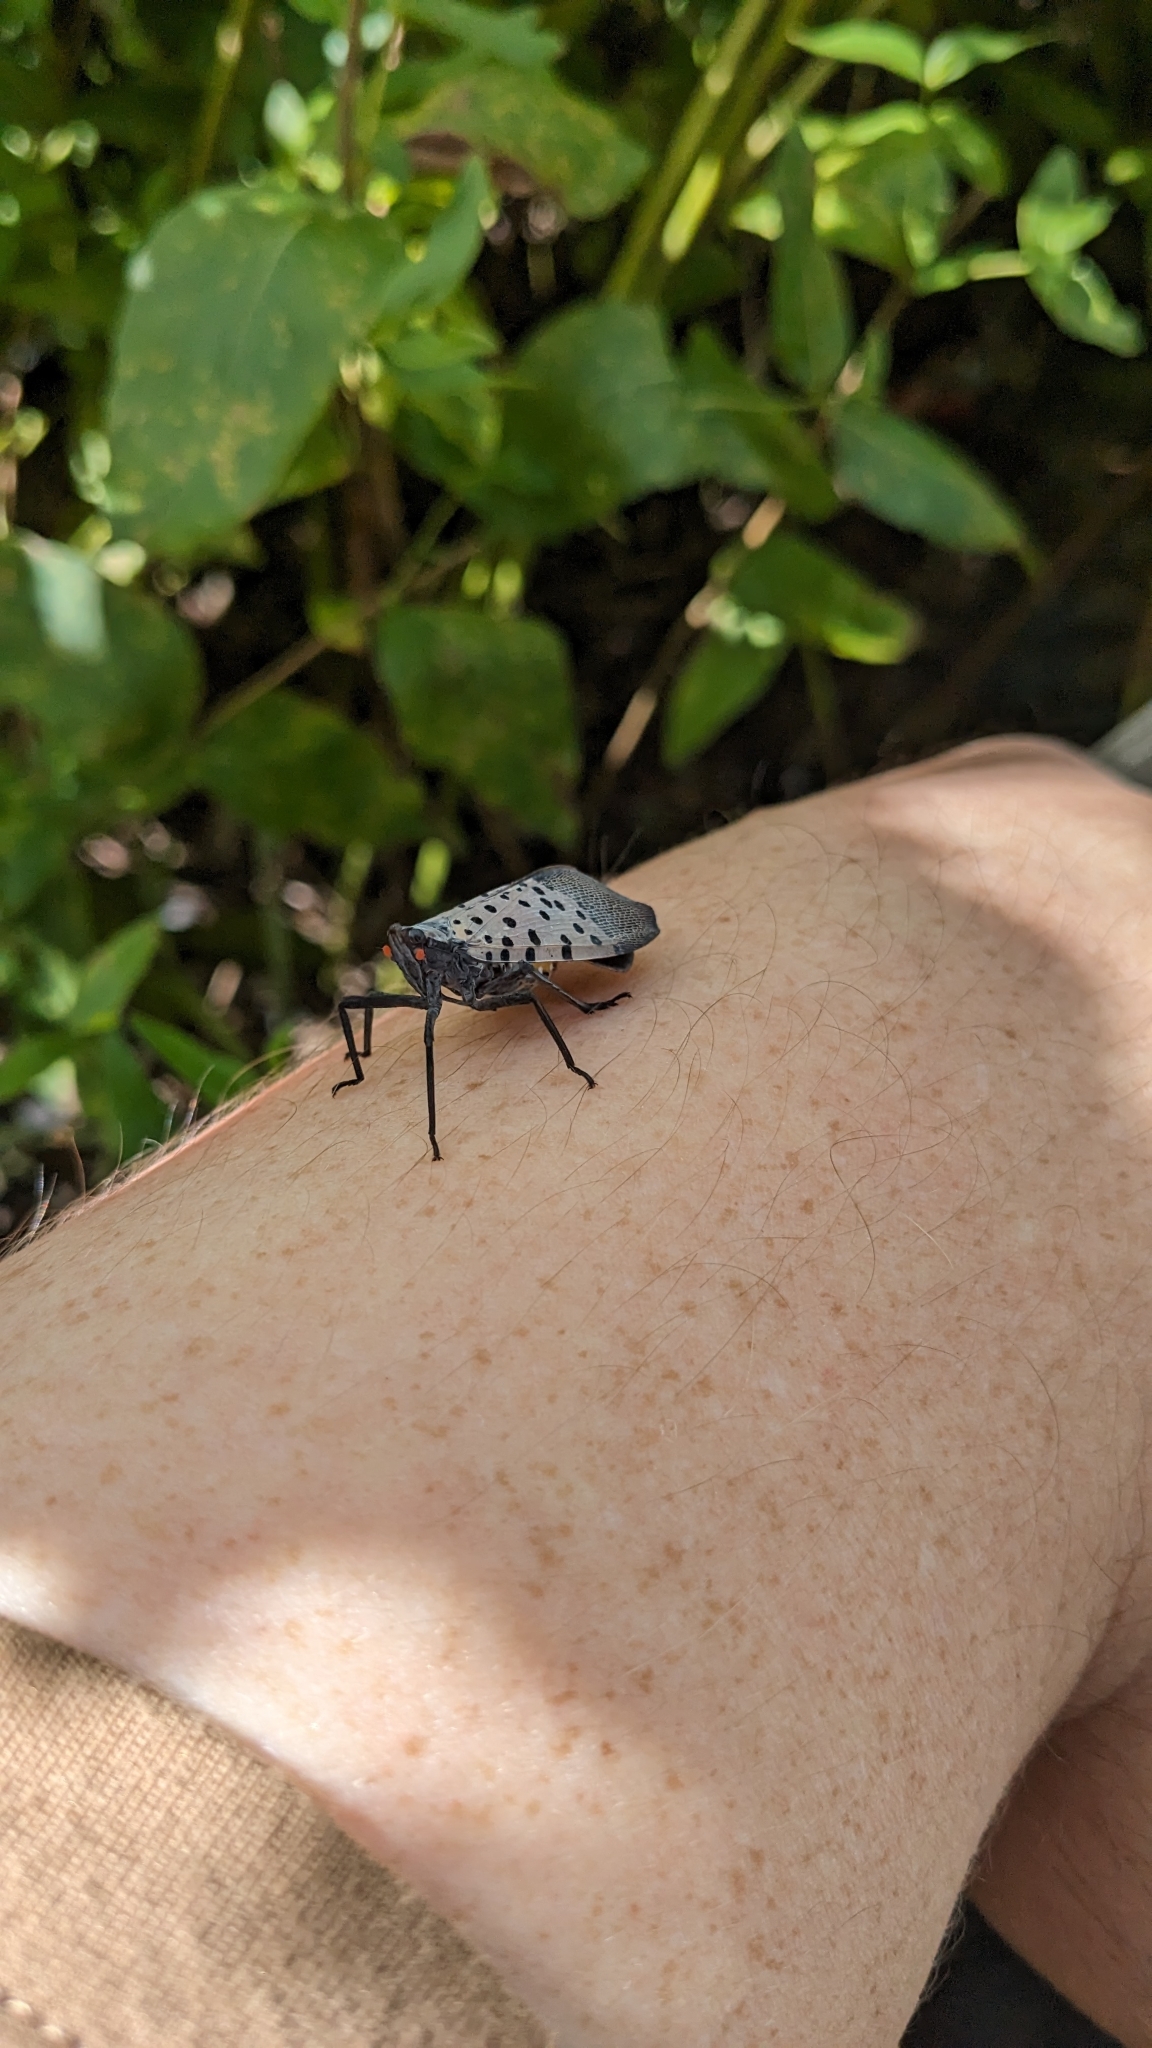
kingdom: Animalia
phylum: Arthropoda
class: Insecta
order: Hemiptera
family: Fulgoridae
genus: Lycorma
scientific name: Lycorma delicatula
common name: Spotted lanternfly
